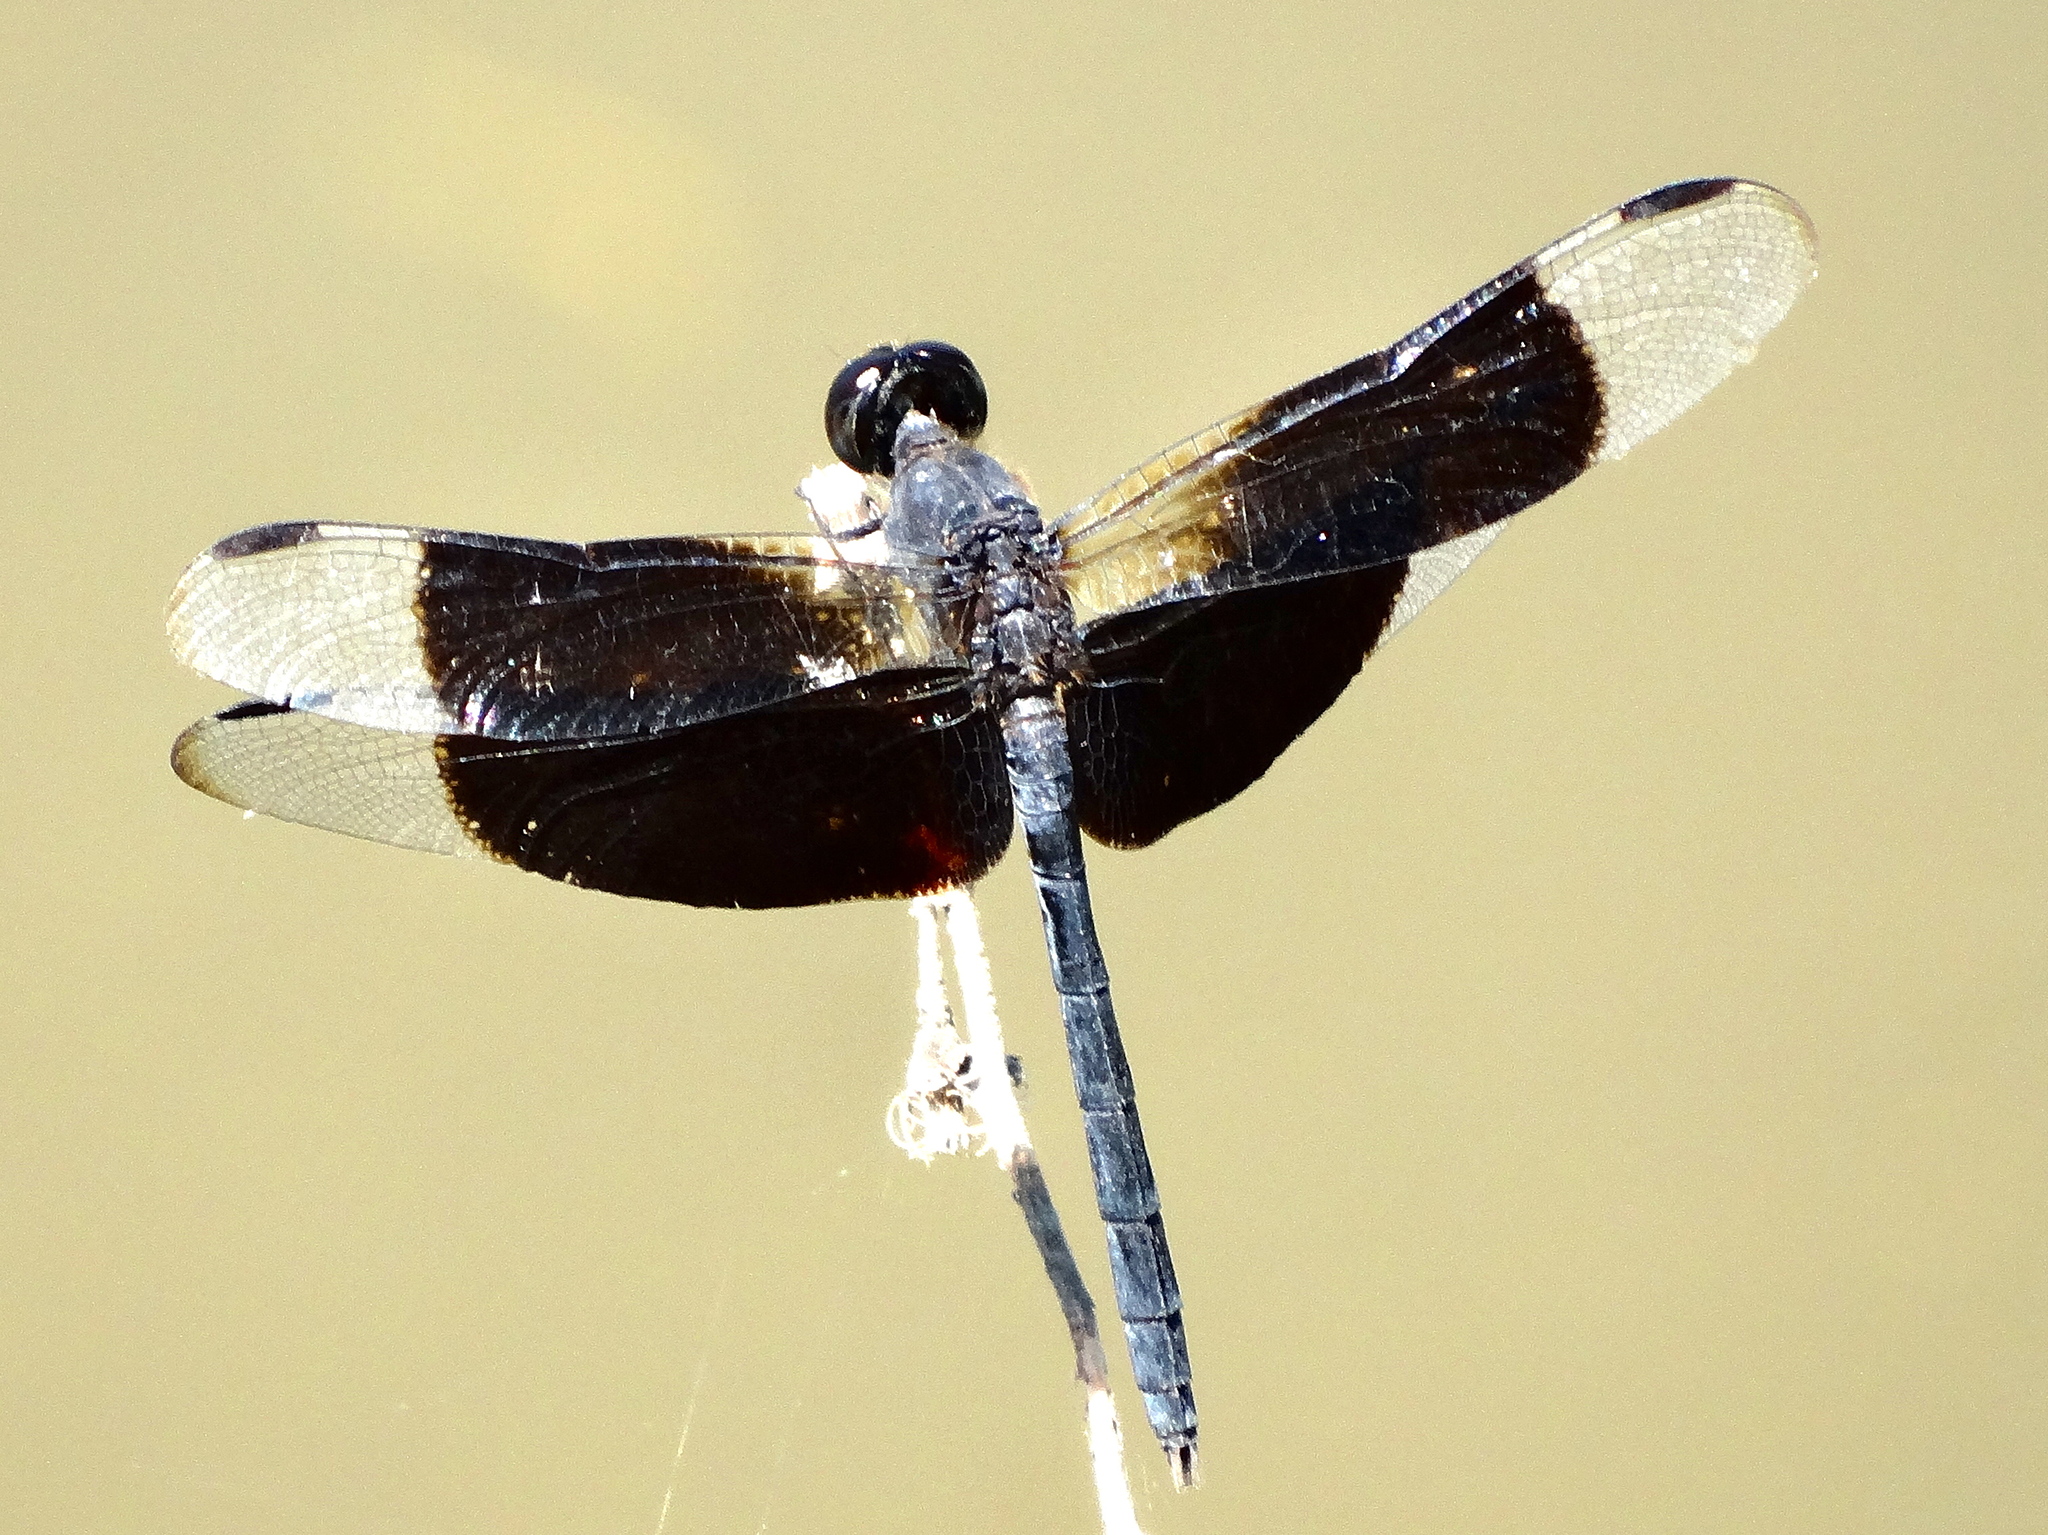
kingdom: Animalia
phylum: Arthropoda
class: Insecta
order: Odonata
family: Libellulidae
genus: Erythrodiplax
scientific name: Erythrodiplax funerea
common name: Black-winged dragonlet
